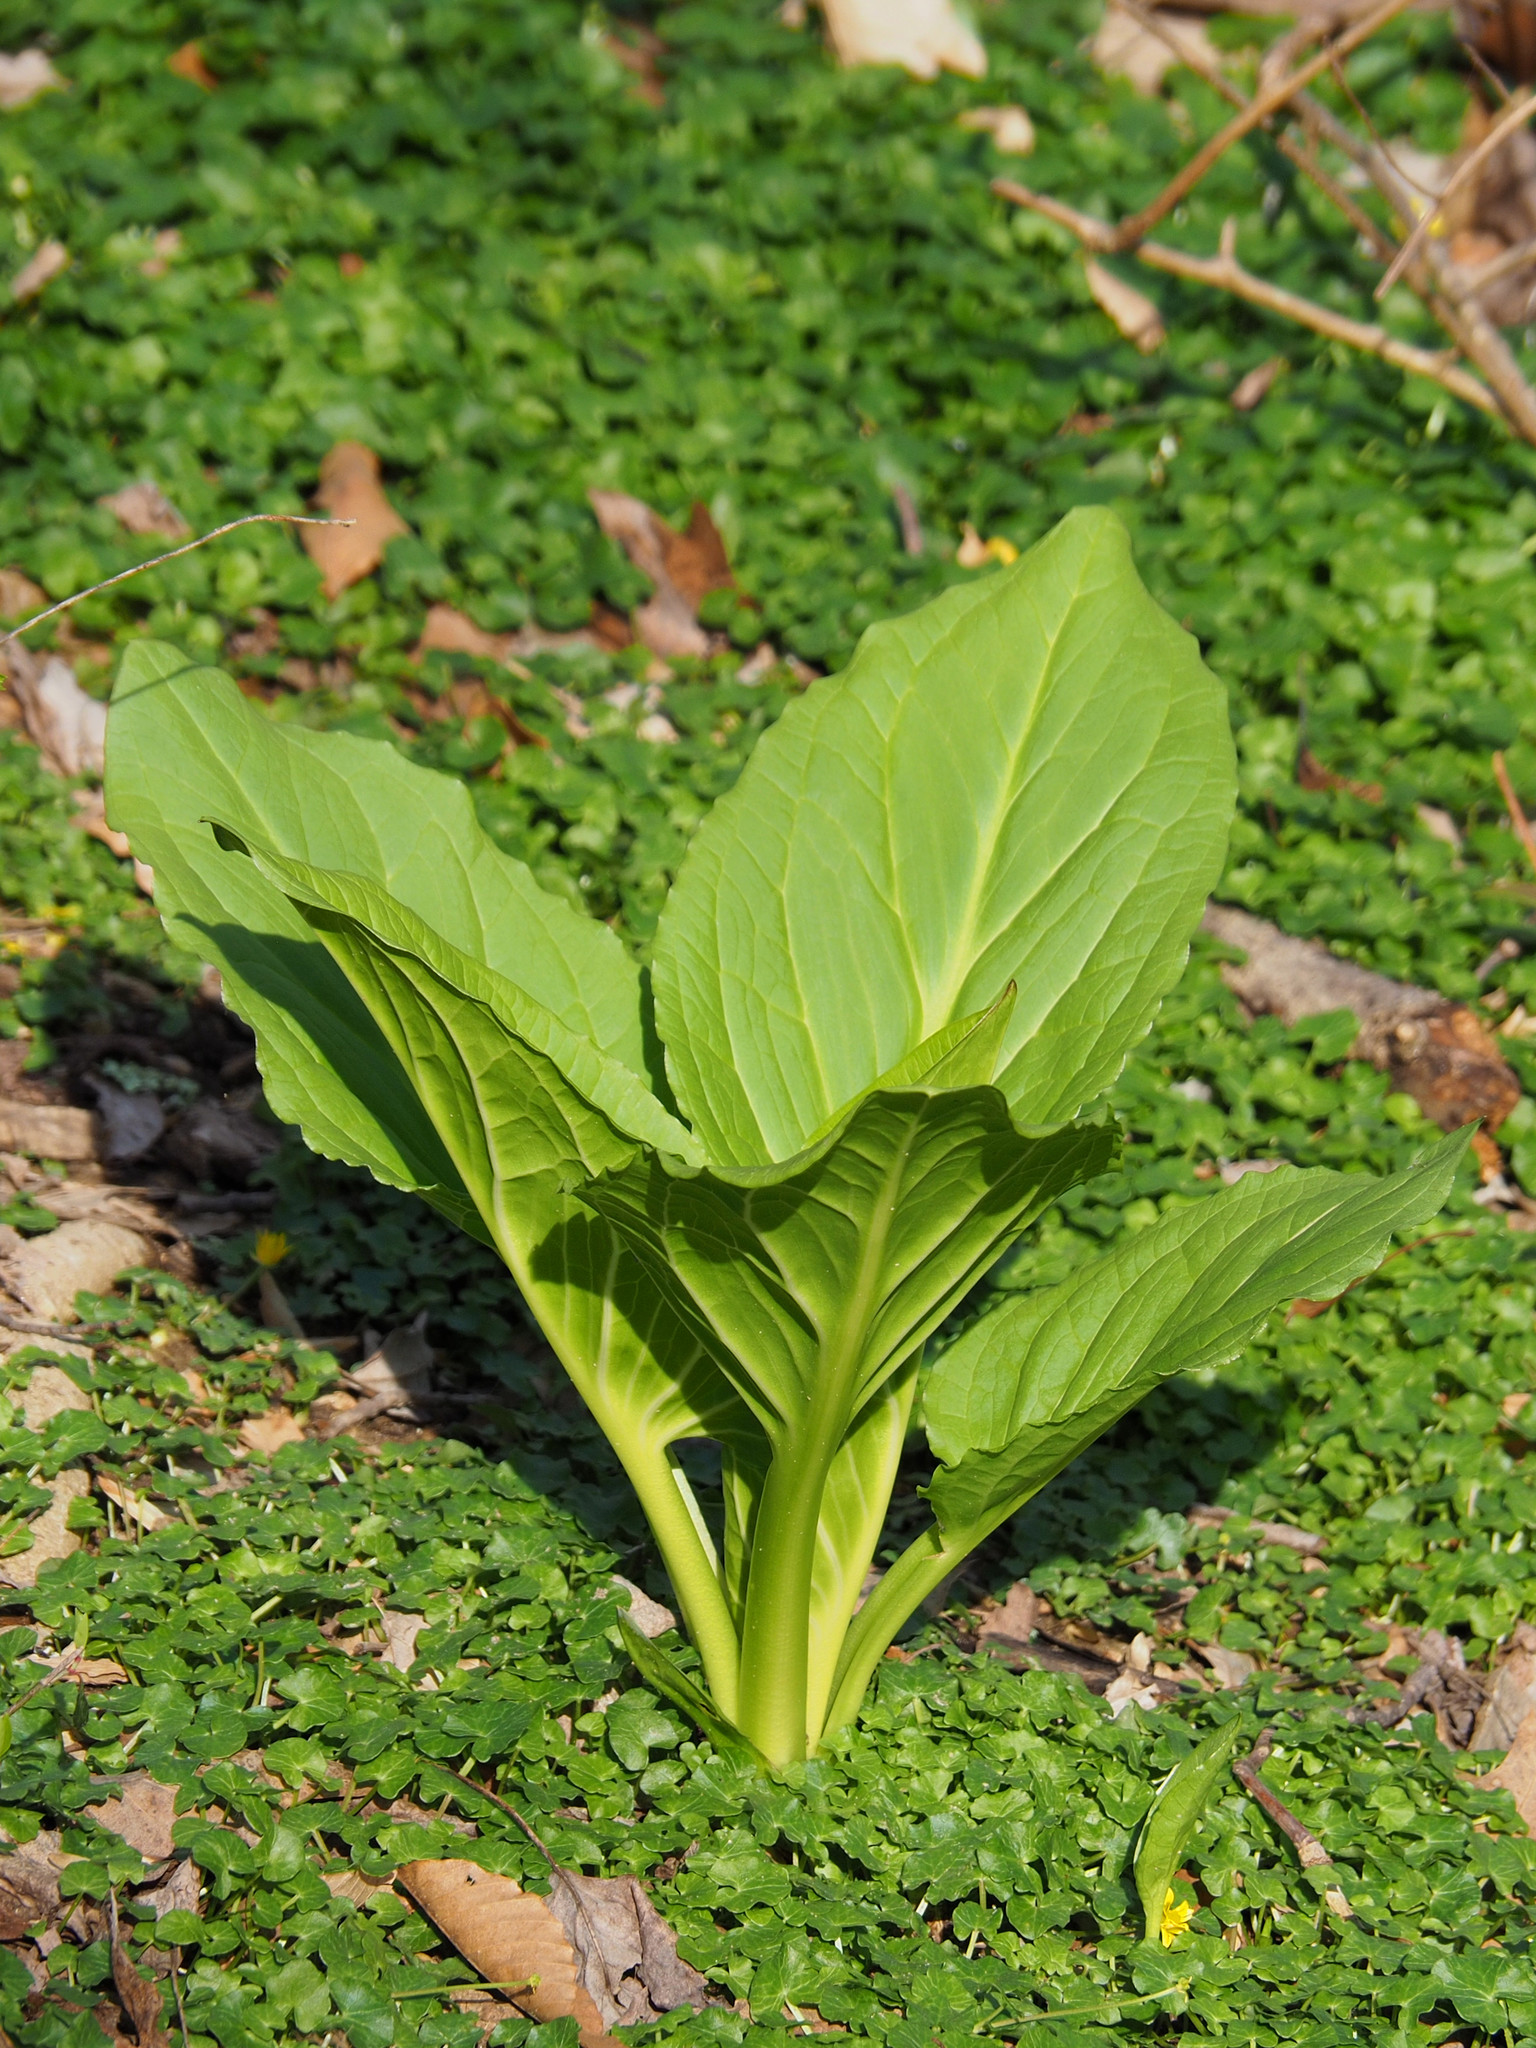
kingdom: Plantae
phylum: Tracheophyta
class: Liliopsida
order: Alismatales
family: Araceae
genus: Symplocarpus
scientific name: Symplocarpus foetidus
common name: Eastern skunk cabbage
